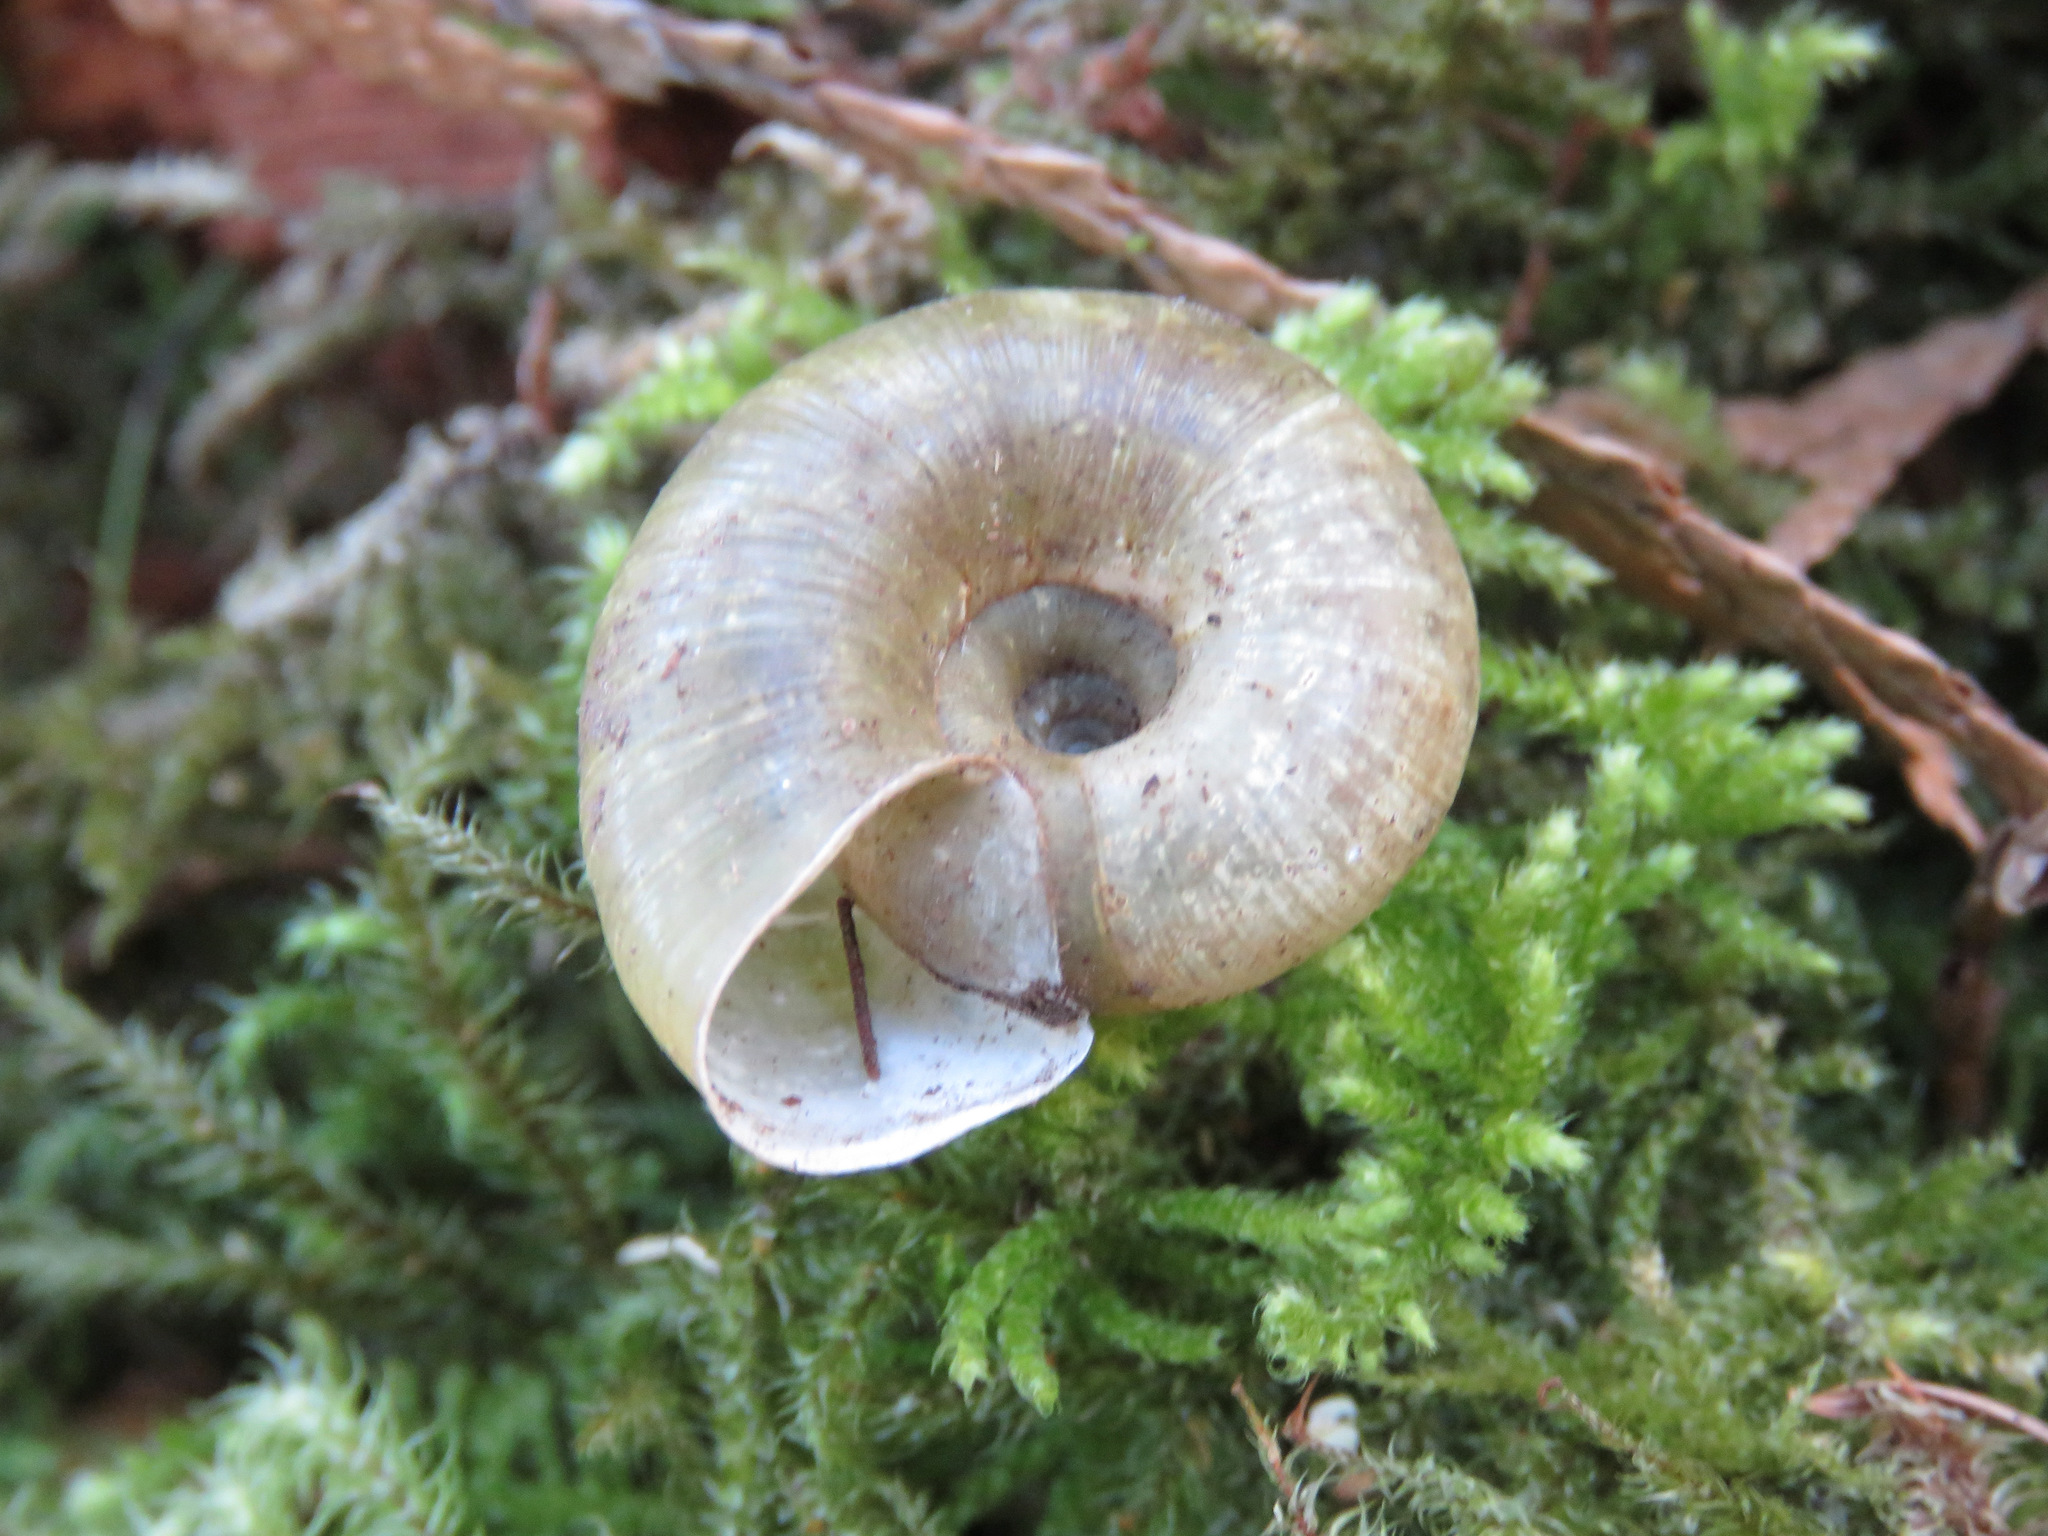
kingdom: Animalia
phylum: Mollusca
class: Gastropoda
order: Stylommatophora
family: Haplotrematidae
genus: Haplotrema
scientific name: Haplotrema vancouverense
